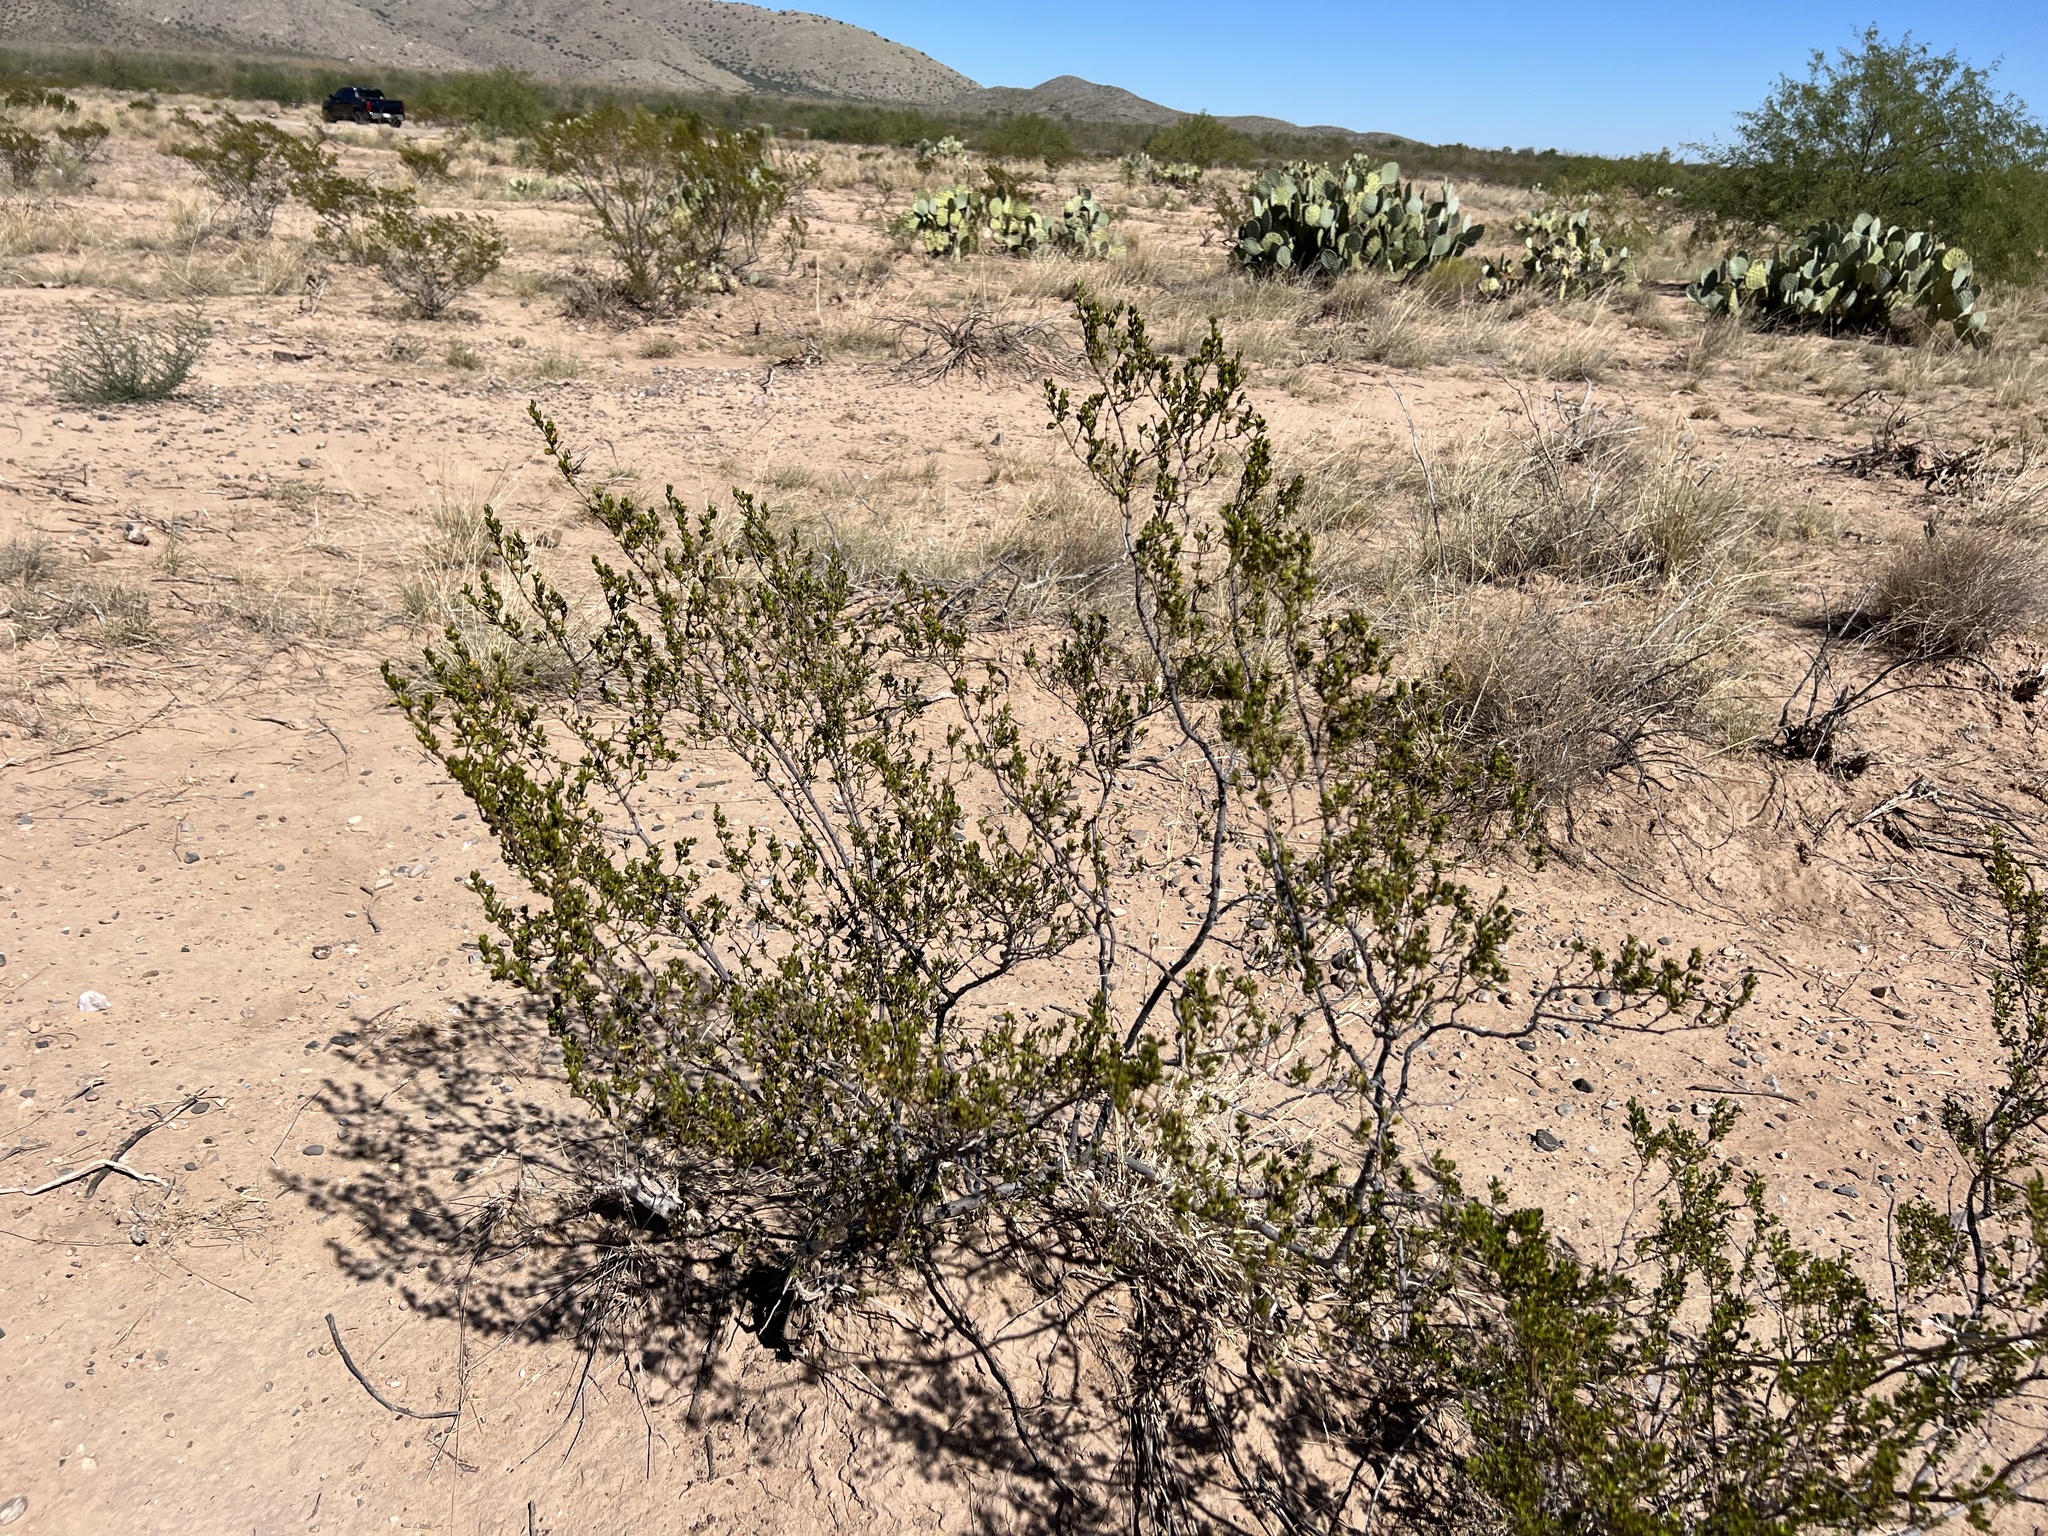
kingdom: Plantae
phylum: Tracheophyta
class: Magnoliopsida
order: Zygophyllales
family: Zygophyllaceae
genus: Larrea
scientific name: Larrea tridentata
